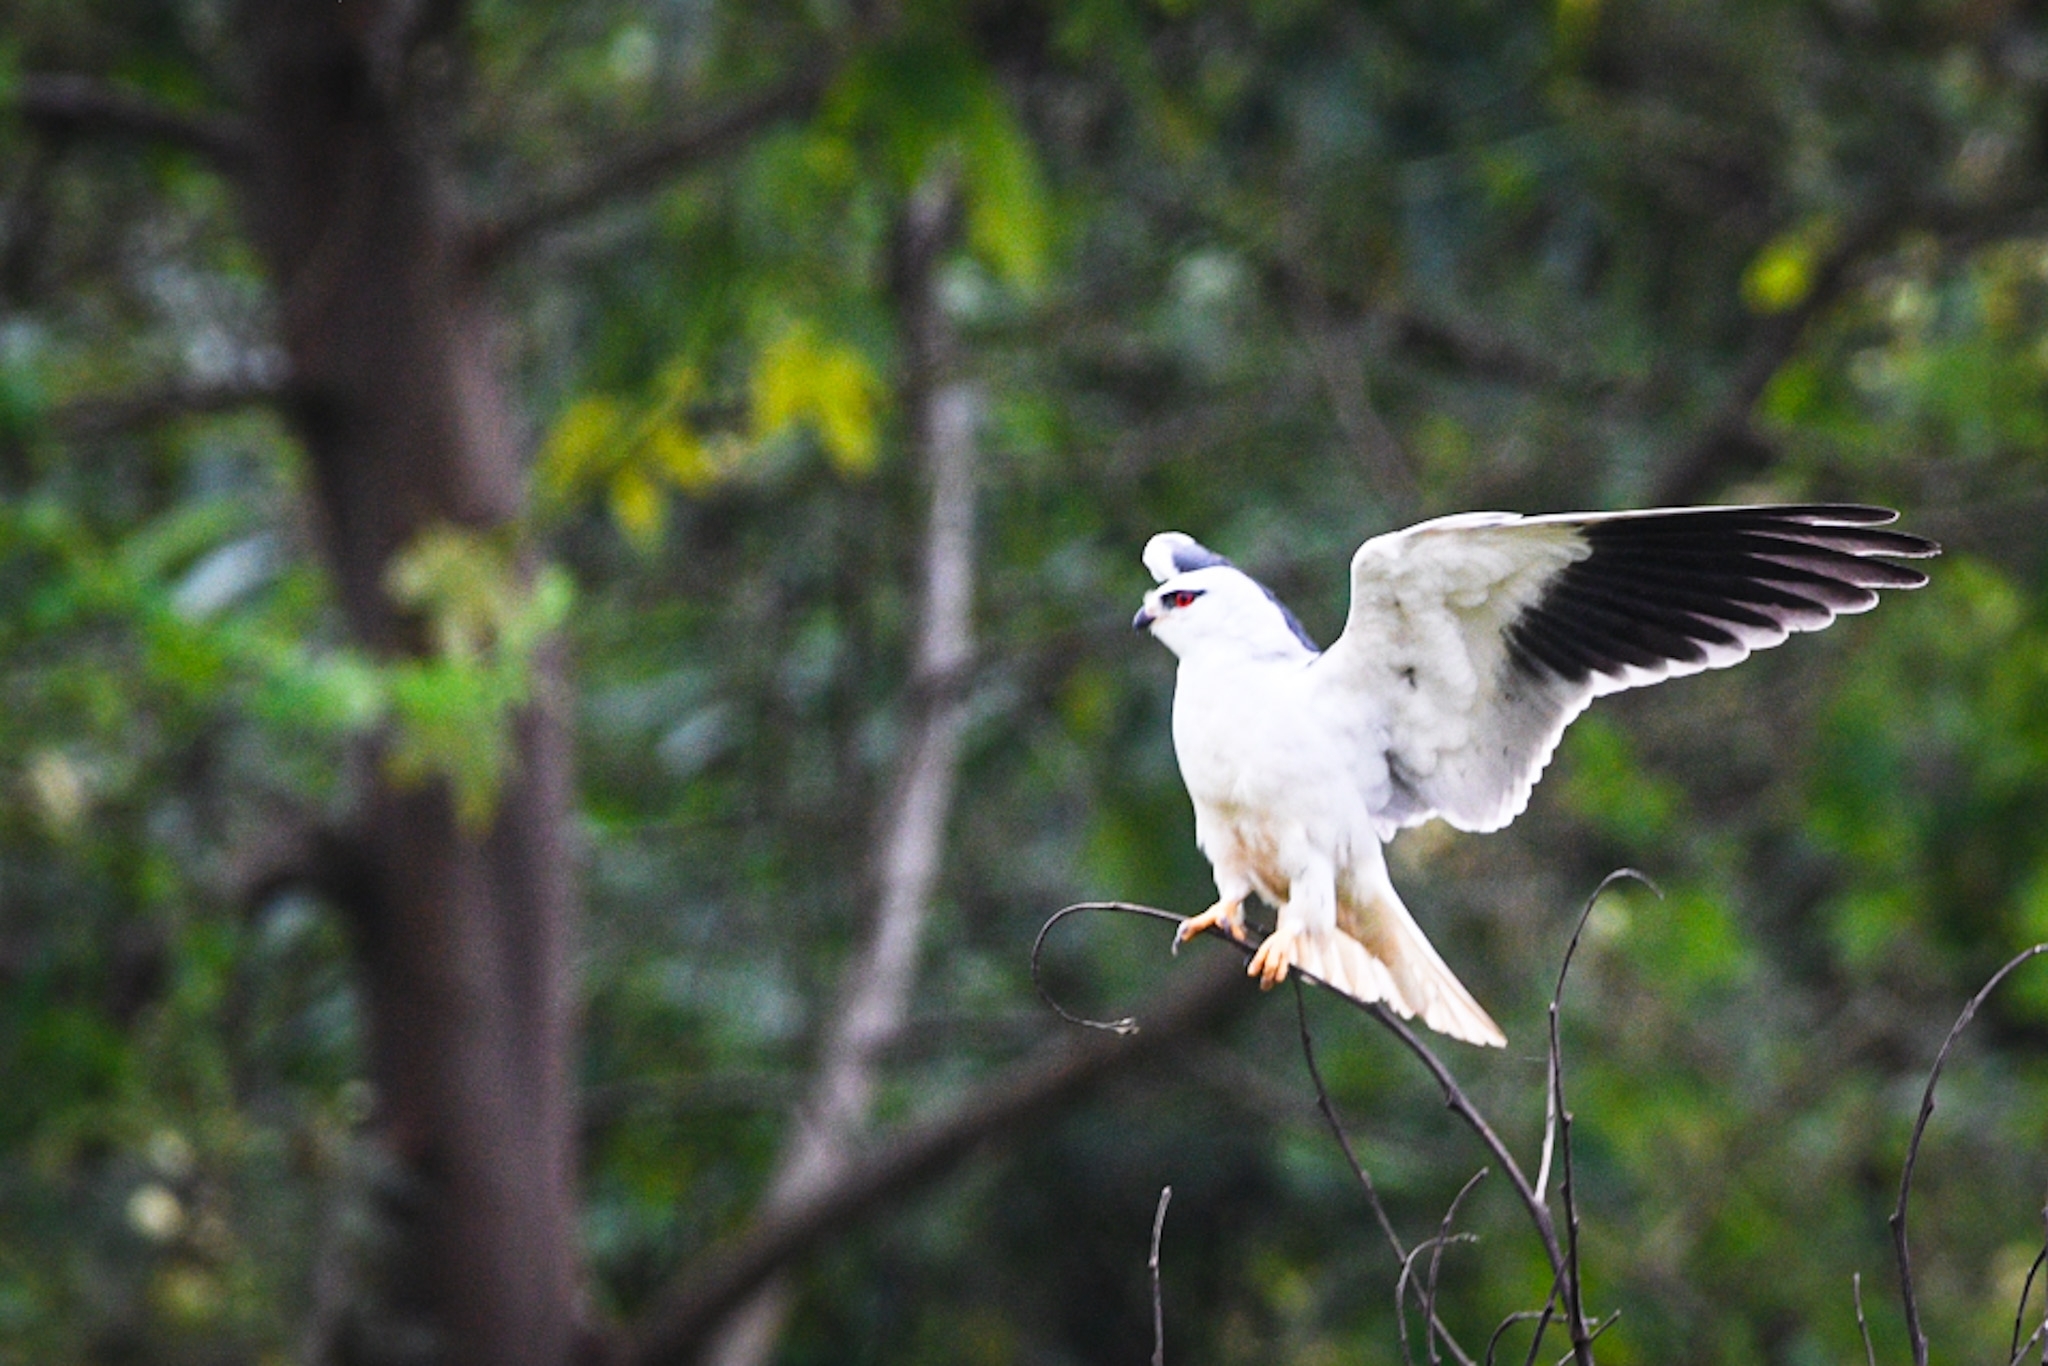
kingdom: Animalia
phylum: Chordata
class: Aves
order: Accipitriformes
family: Accipitridae
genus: Elanus
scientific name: Elanus caeruleus
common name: Black-winged kite
